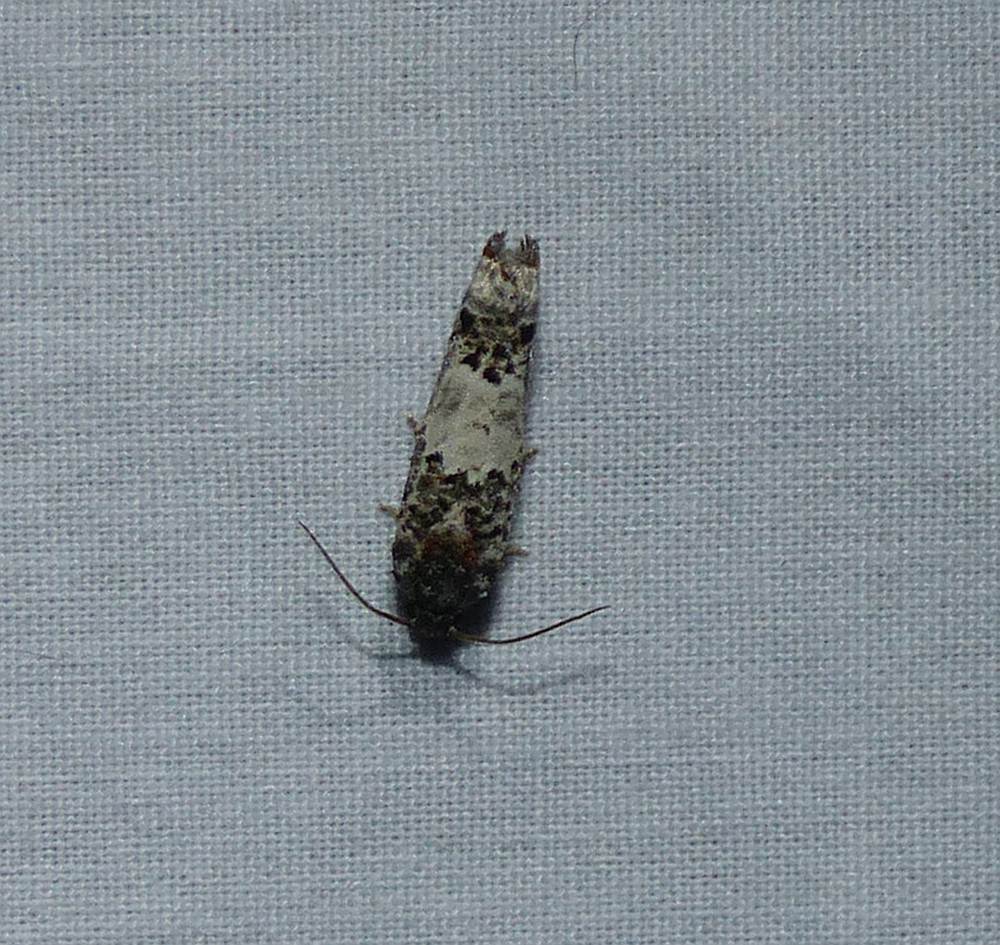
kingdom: Animalia
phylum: Arthropoda
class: Insecta
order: Lepidoptera
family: Tortricidae
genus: Epiblema
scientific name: Epiblema carolinana
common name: Gray-blotched epiblema moth
